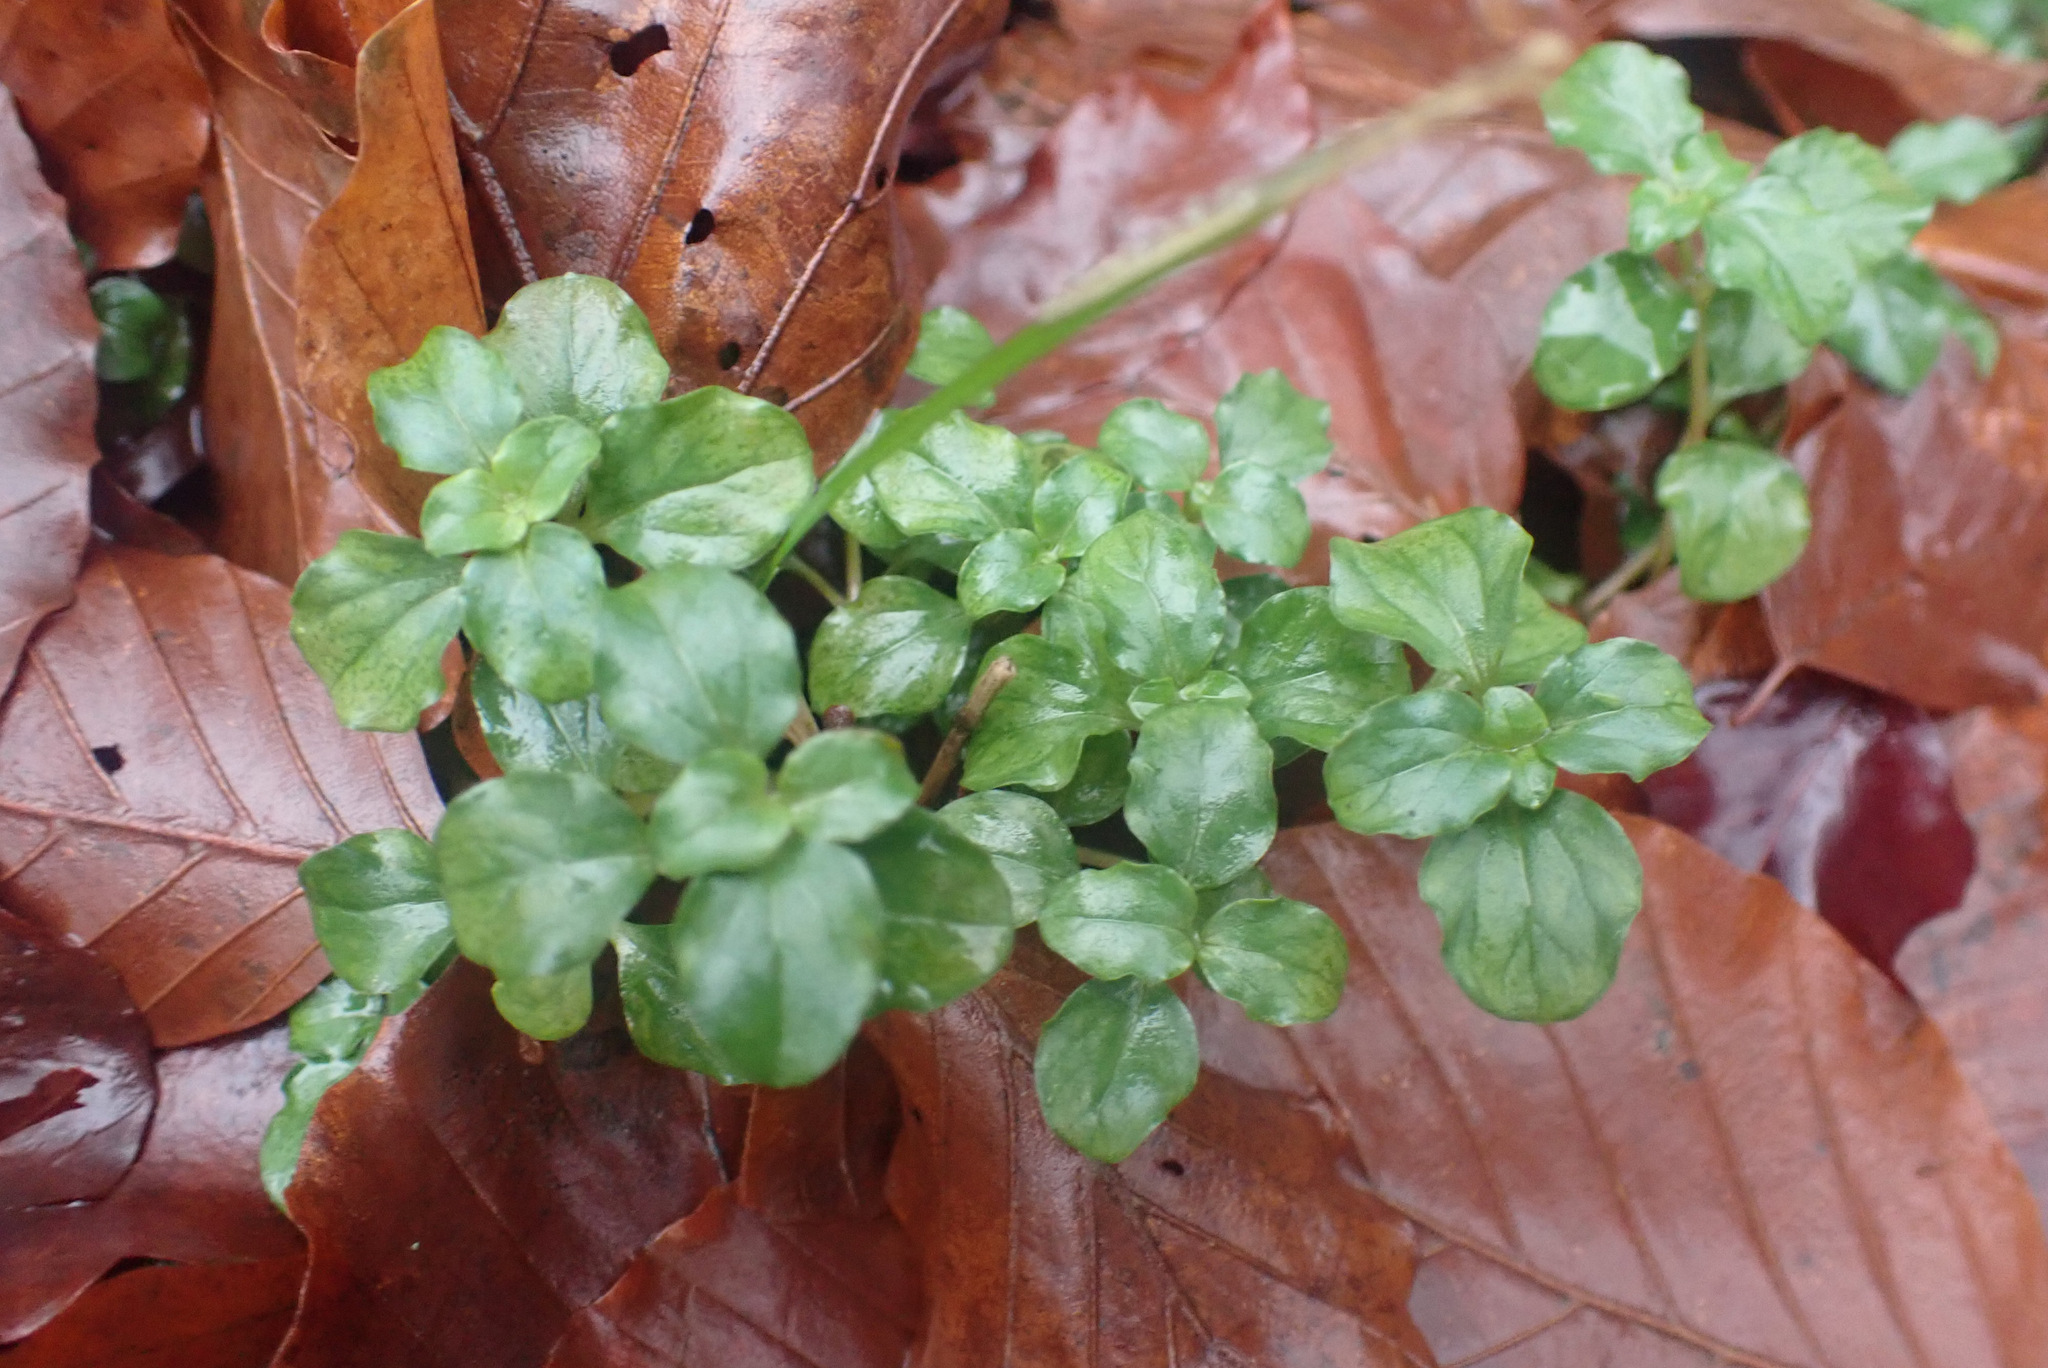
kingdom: Plantae
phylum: Tracheophyta
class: Magnoliopsida
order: Ericales
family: Primulaceae
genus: Lysimachia
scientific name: Lysimachia nemorum
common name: Yellow pimpernel
